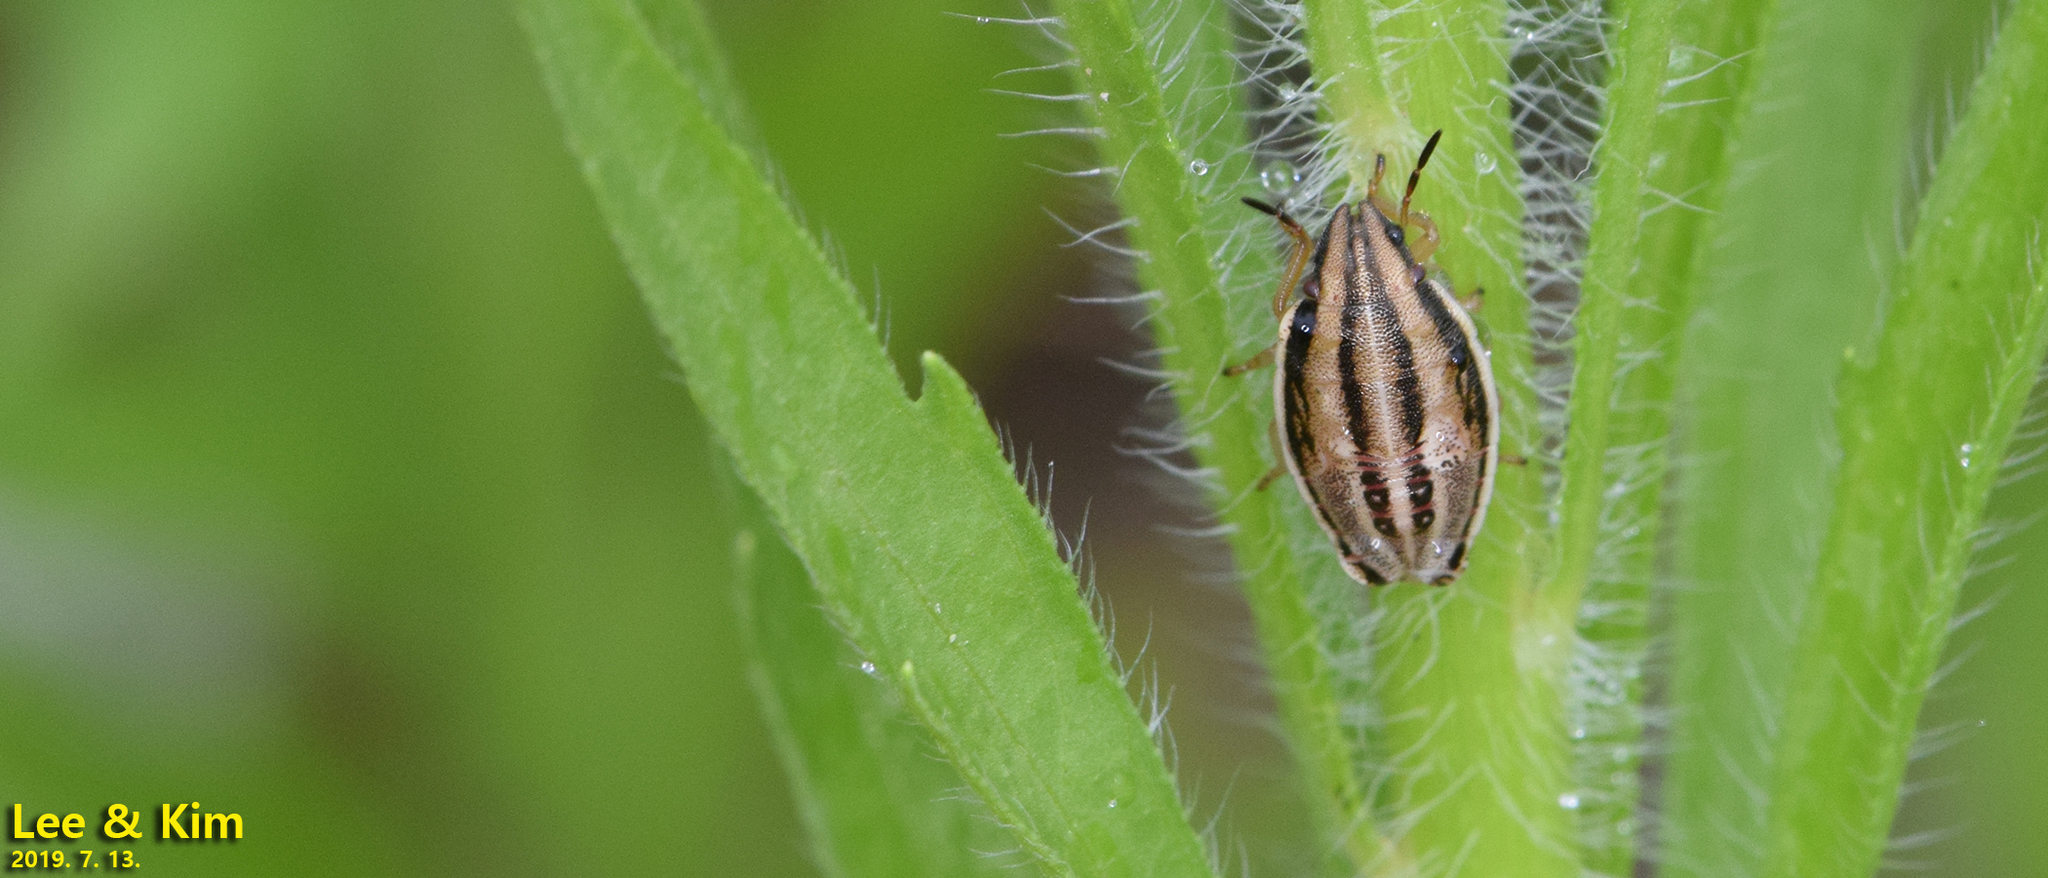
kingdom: Animalia
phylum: Arthropoda
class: Insecta
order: Hemiptera
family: Pentatomidae
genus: Aelia
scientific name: Aelia
